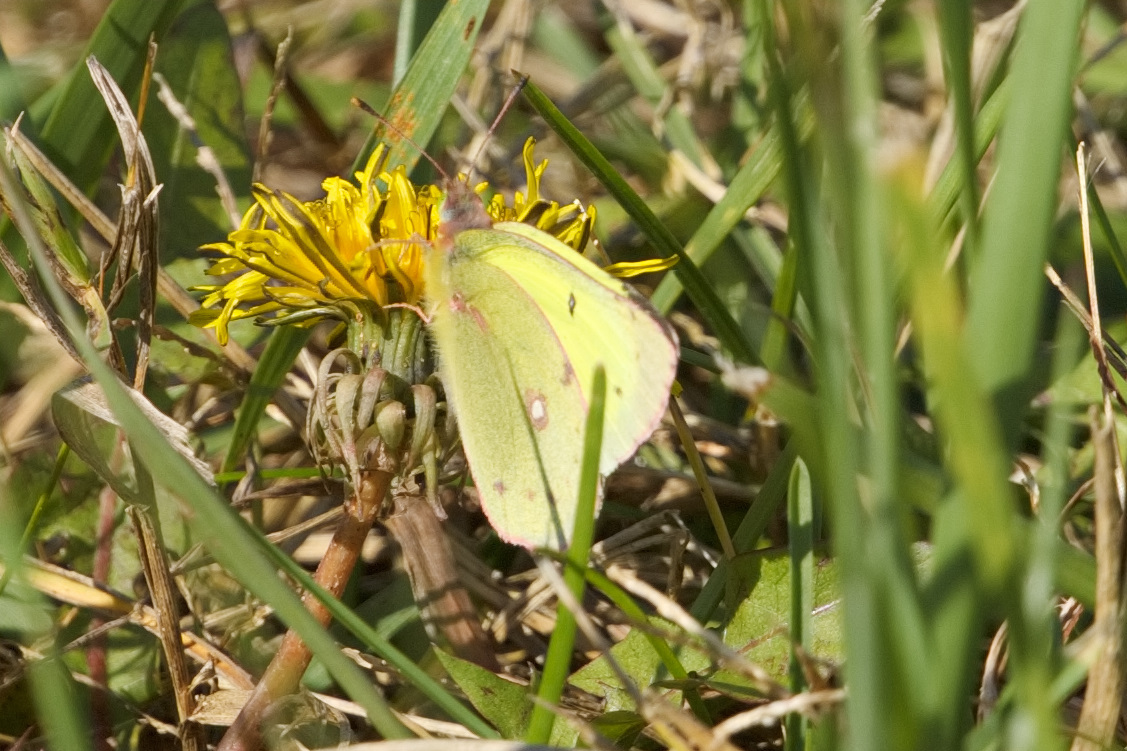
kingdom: Animalia
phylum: Arthropoda
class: Insecta
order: Lepidoptera
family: Pieridae
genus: Colias
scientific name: Colias philodice
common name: Clouded sulphur
